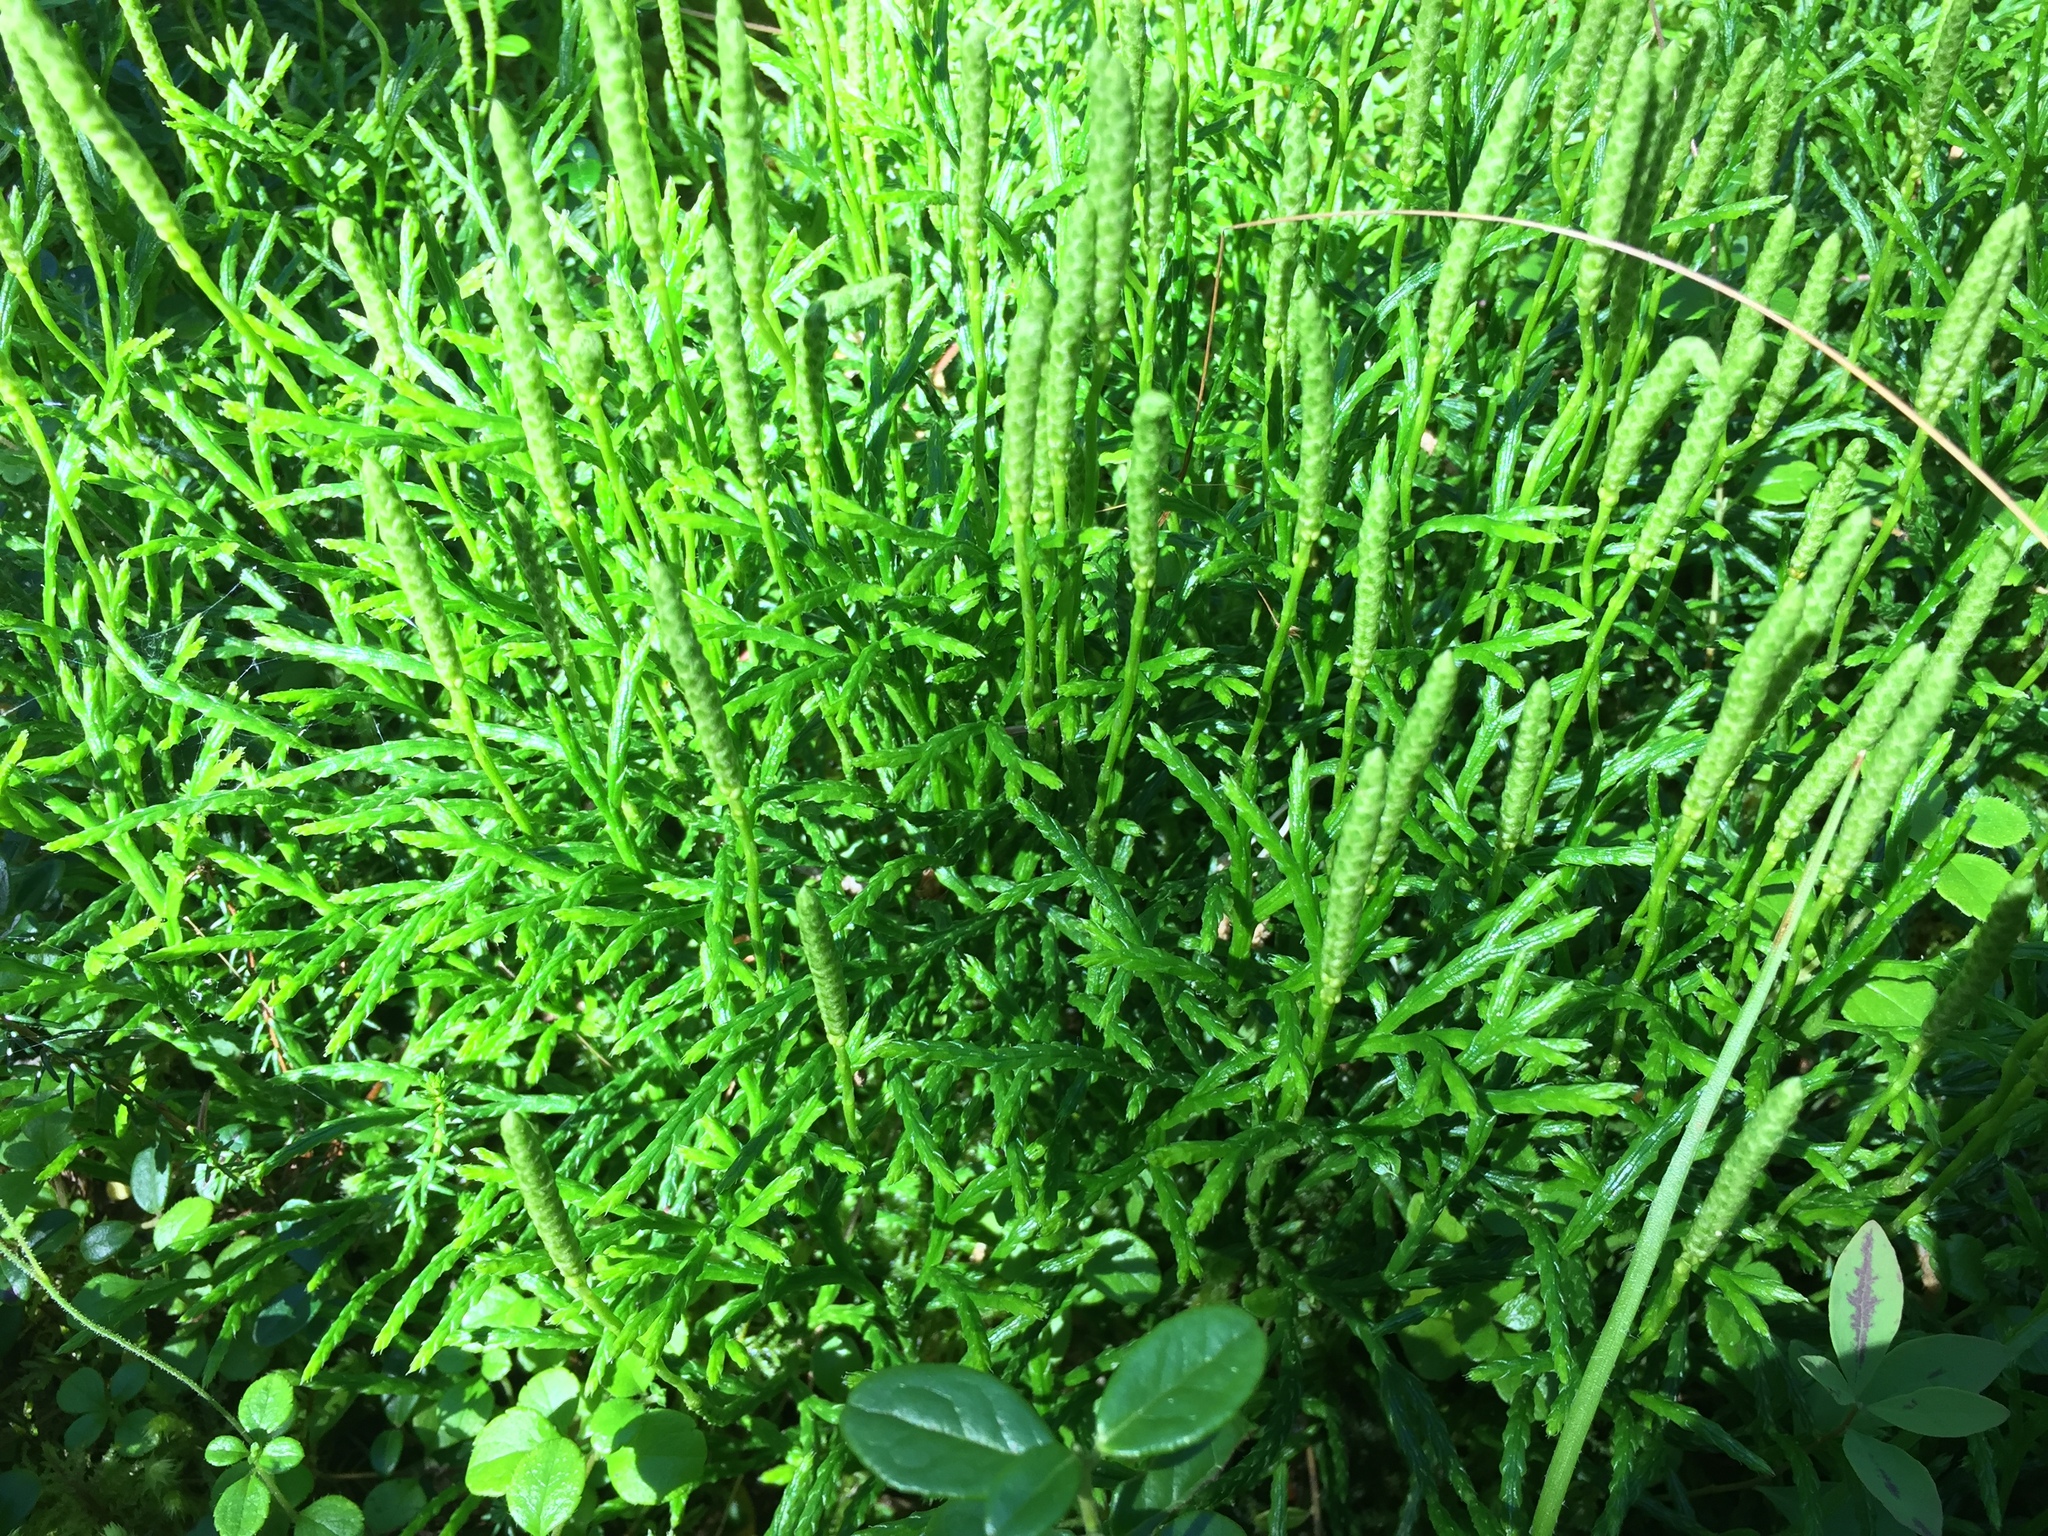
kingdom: Plantae
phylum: Tracheophyta
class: Lycopodiopsida
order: Lycopodiales
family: Lycopodiaceae
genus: Diphasiastrum
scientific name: Diphasiastrum complanatum
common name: Northern running-pine
